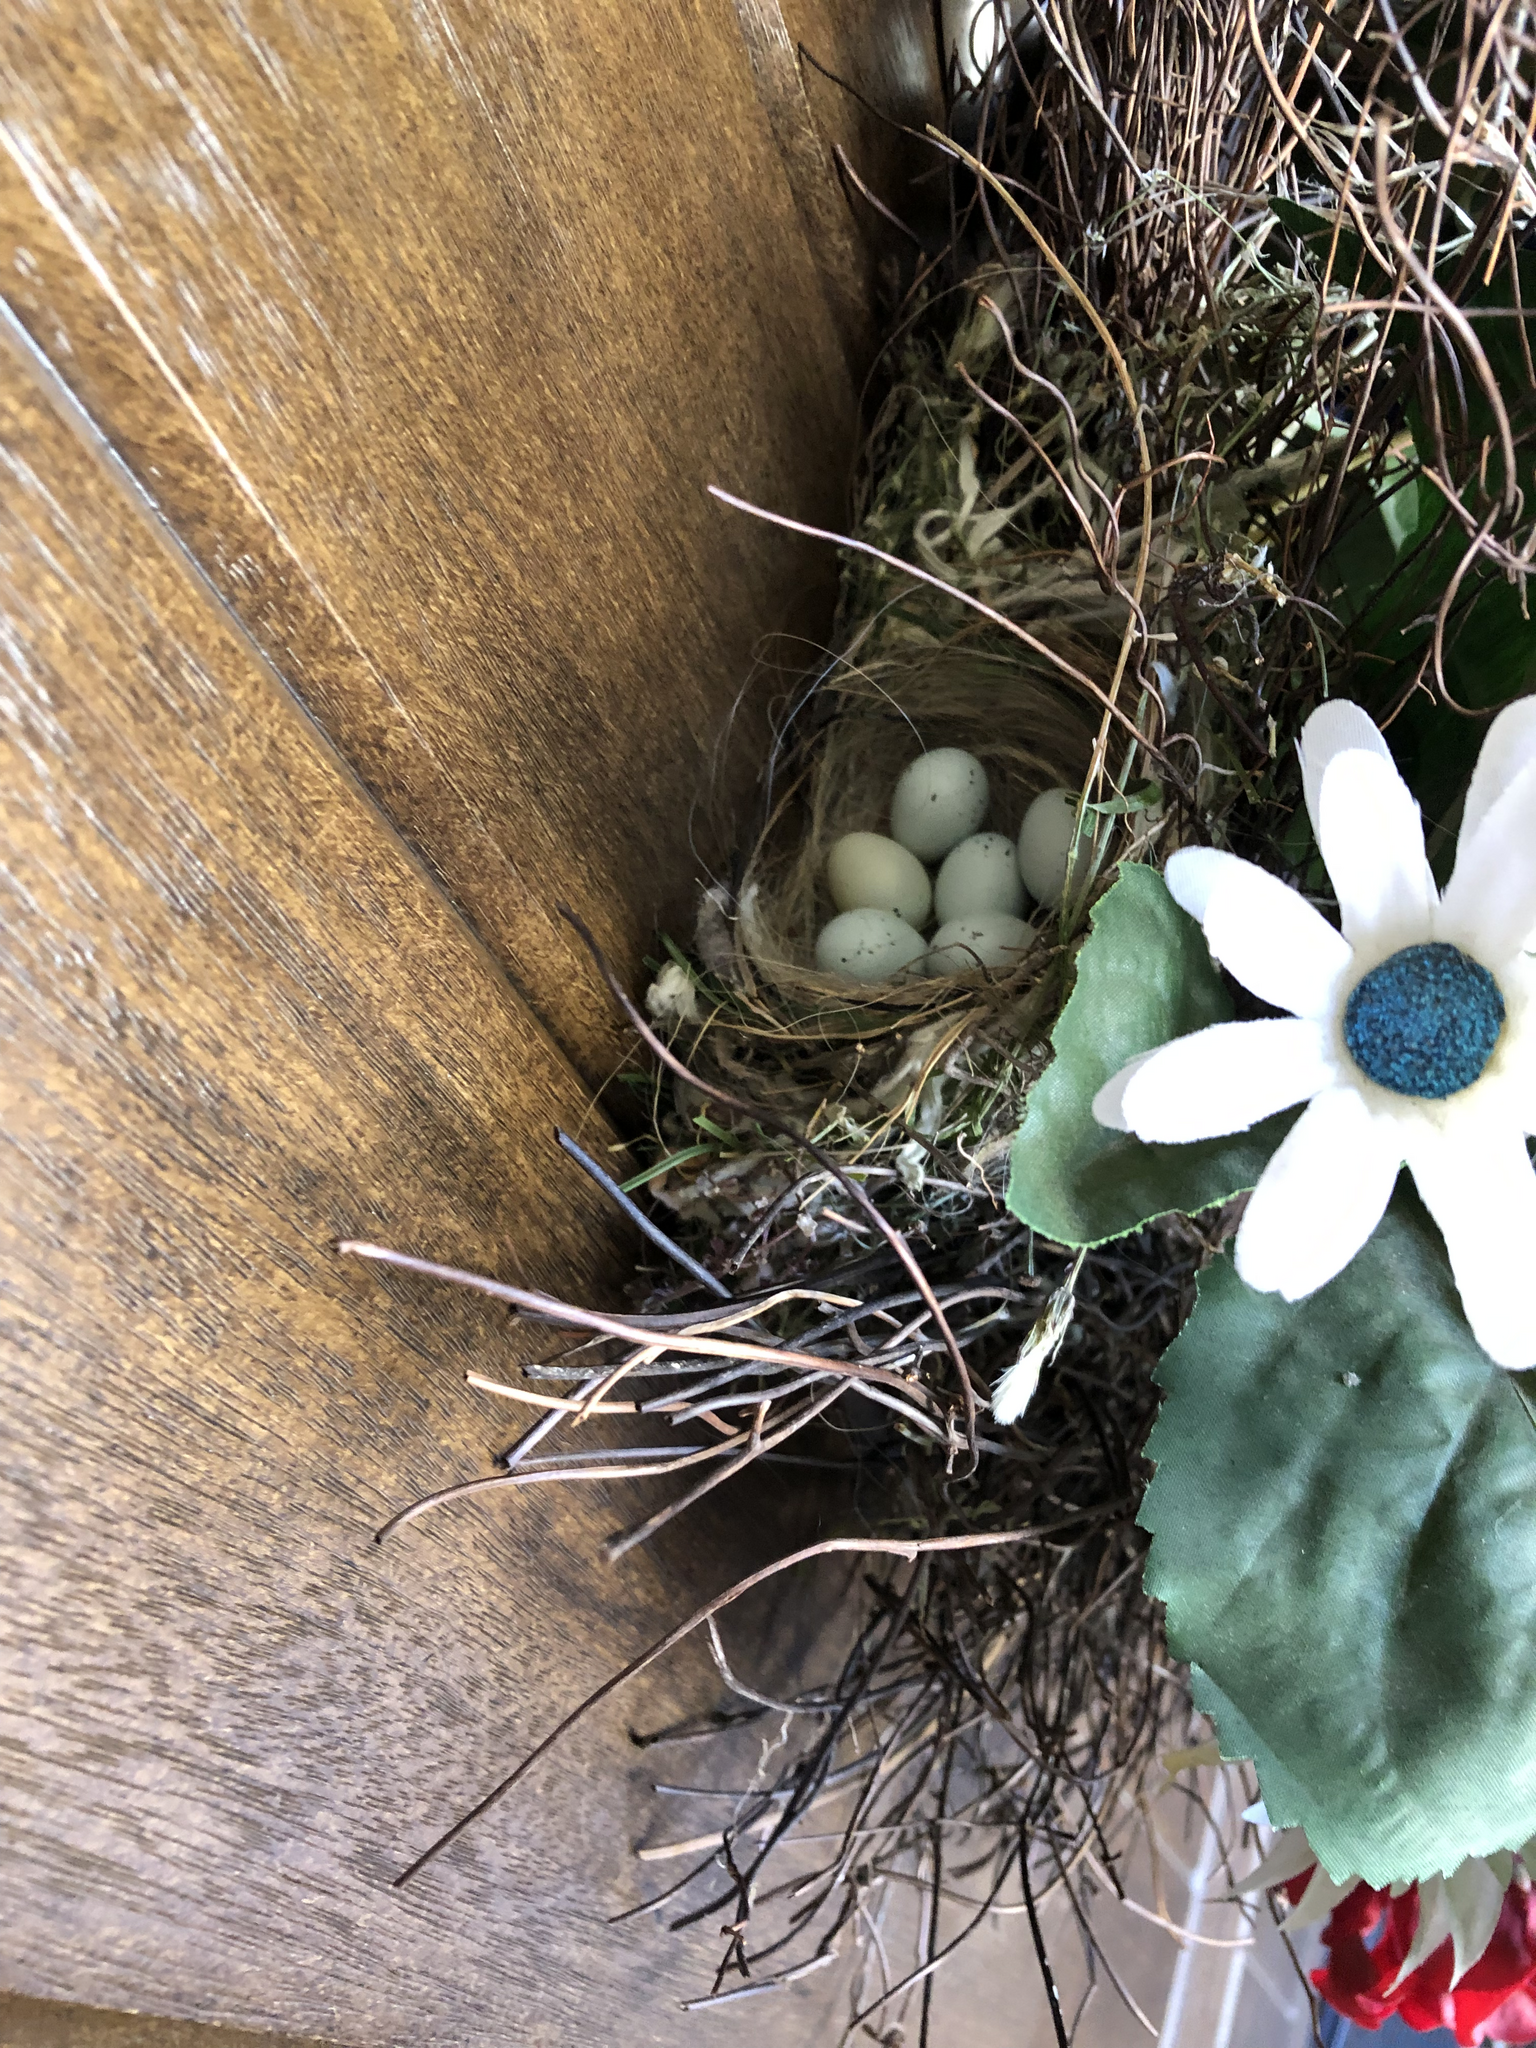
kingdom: Animalia
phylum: Chordata
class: Aves
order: Passeriformes
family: Fringillidae
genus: Haemorhous
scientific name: Haemorhous mexicanus
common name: House finch
